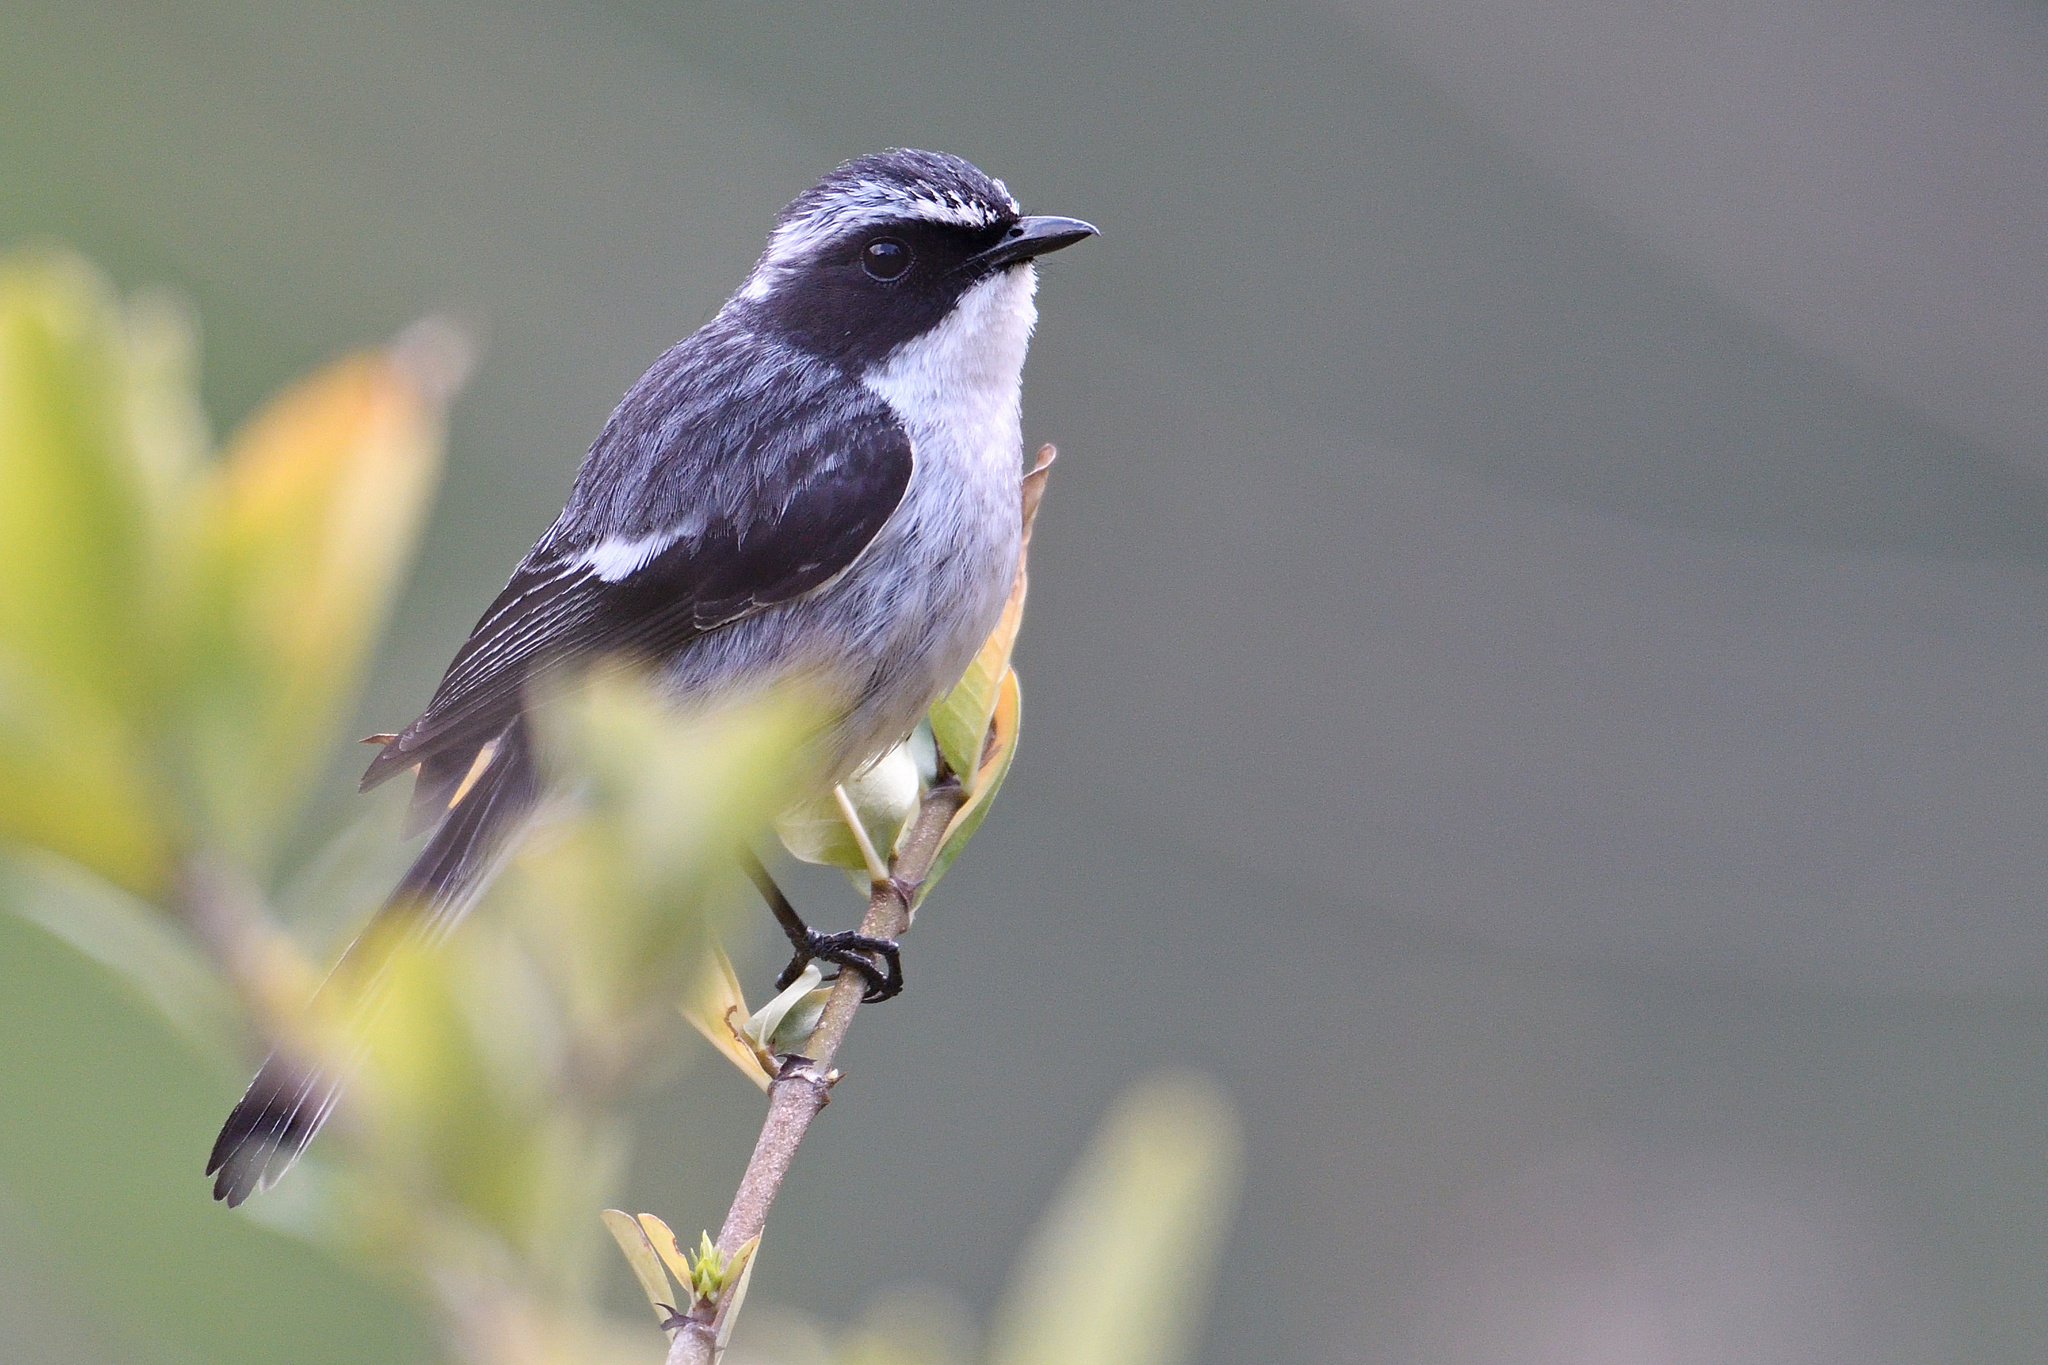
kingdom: Animalia
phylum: Chordata
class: Aves
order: Passeriformes
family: Muscicapidae
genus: Saxicola
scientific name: Saxicola ferreus
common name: Grey bush chat
